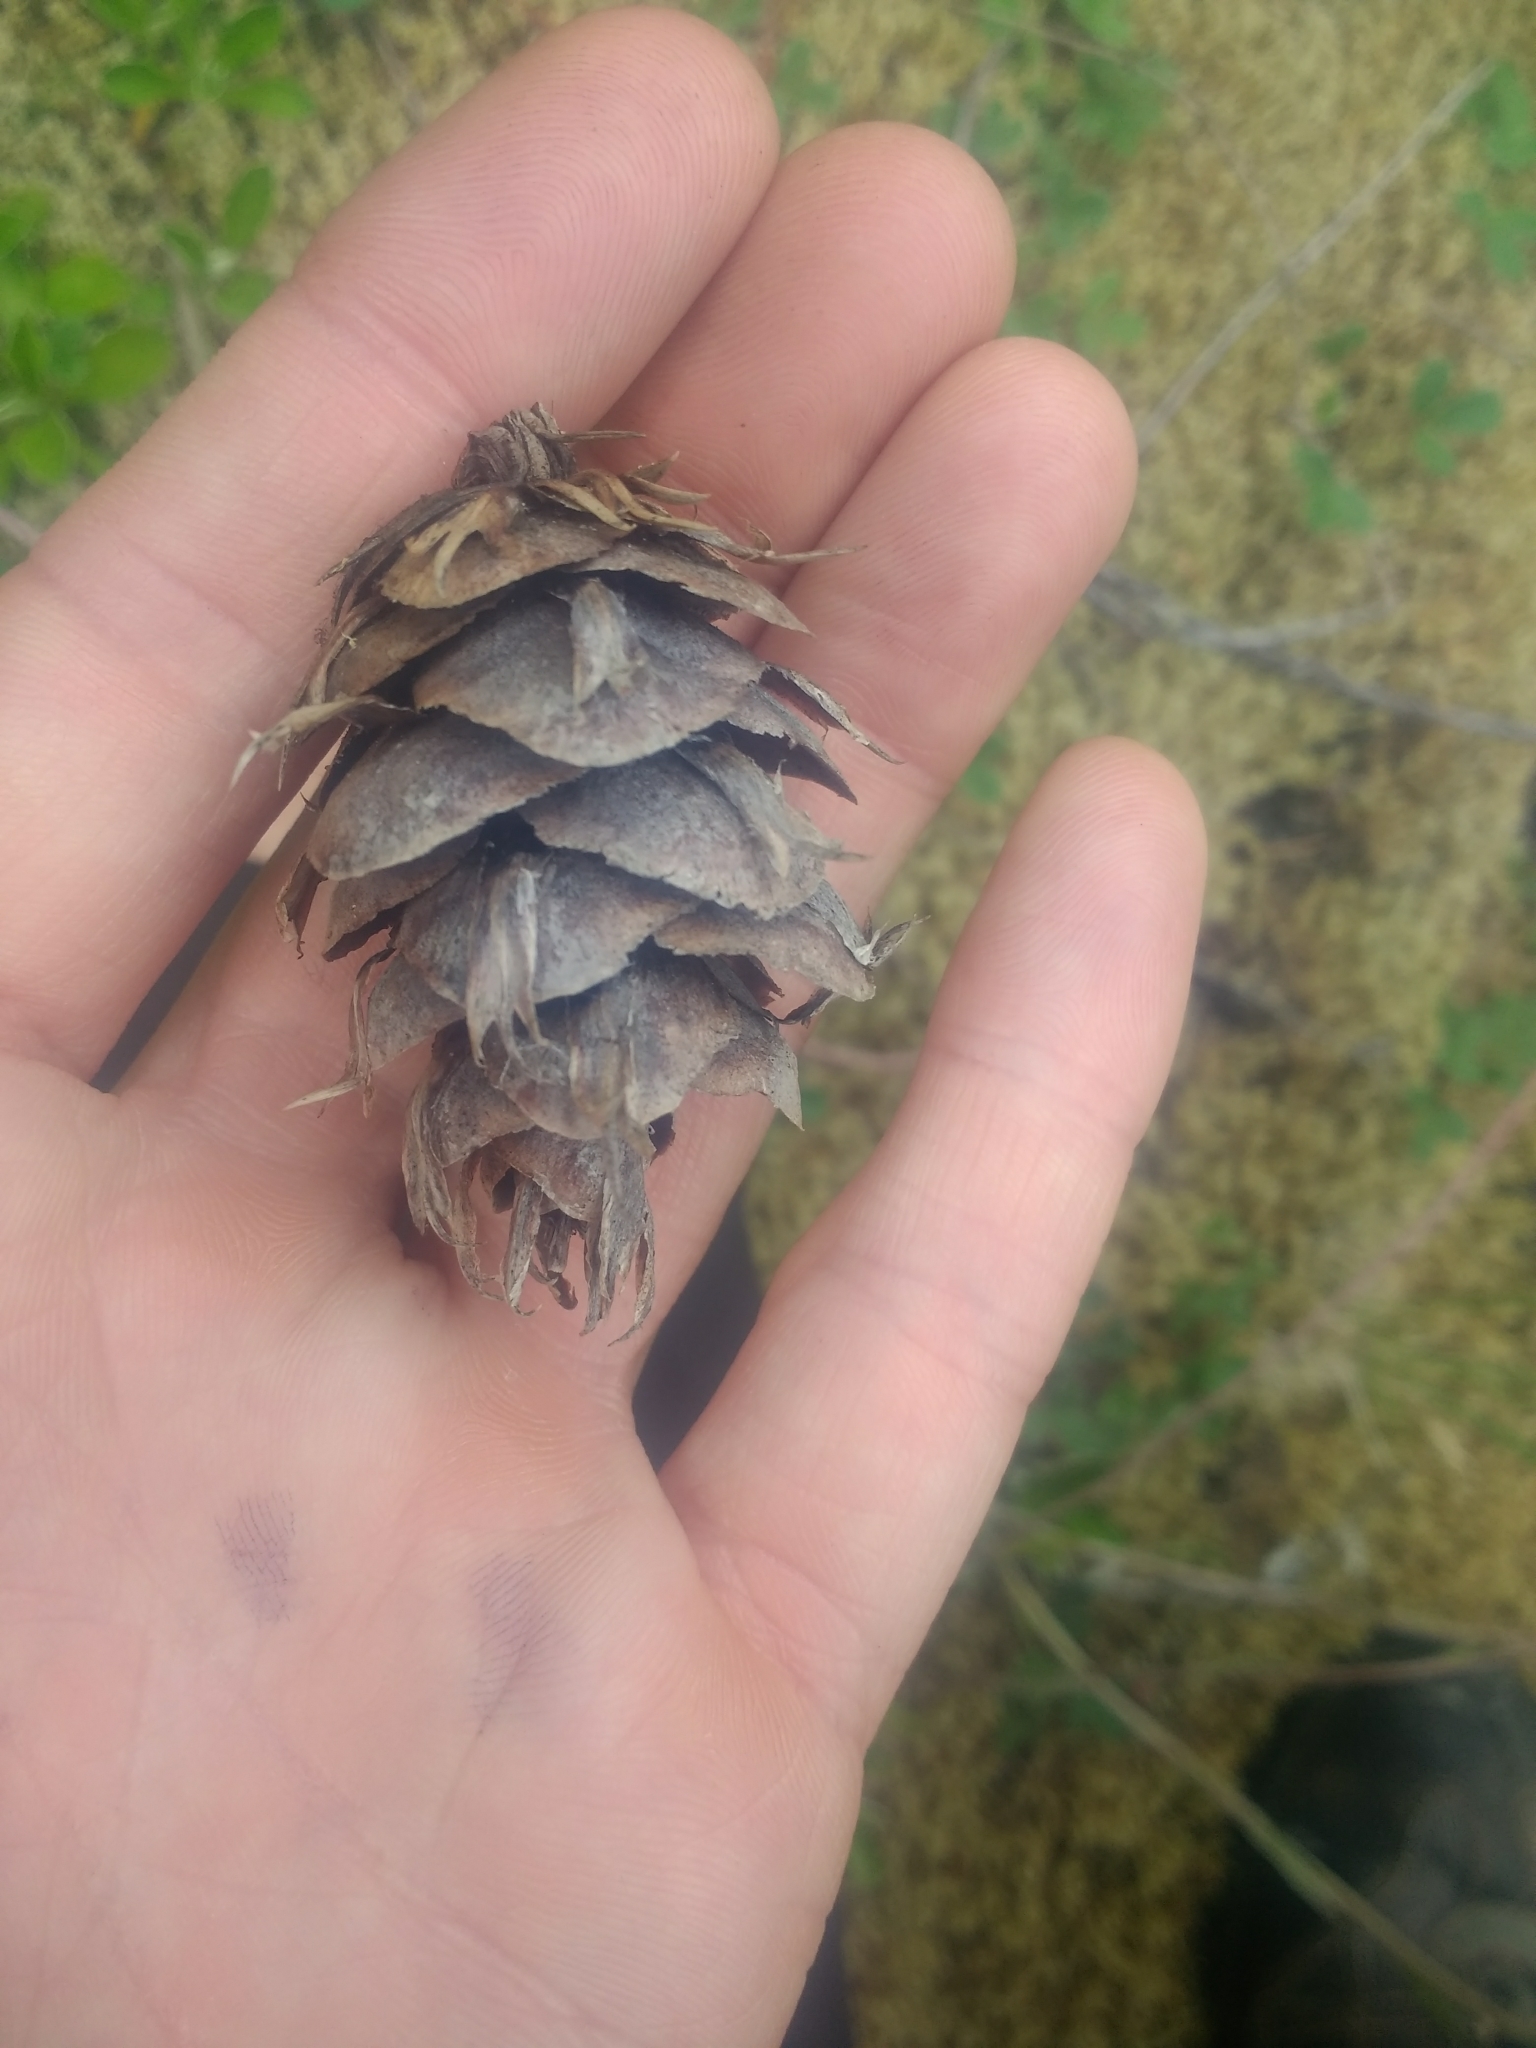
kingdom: Plantae
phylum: Tracheophyta
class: Pinopsida
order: Pinales
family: Pinaceae
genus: Pseudotsuga
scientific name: Pseudotsuga menziesii
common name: Douglas fir
